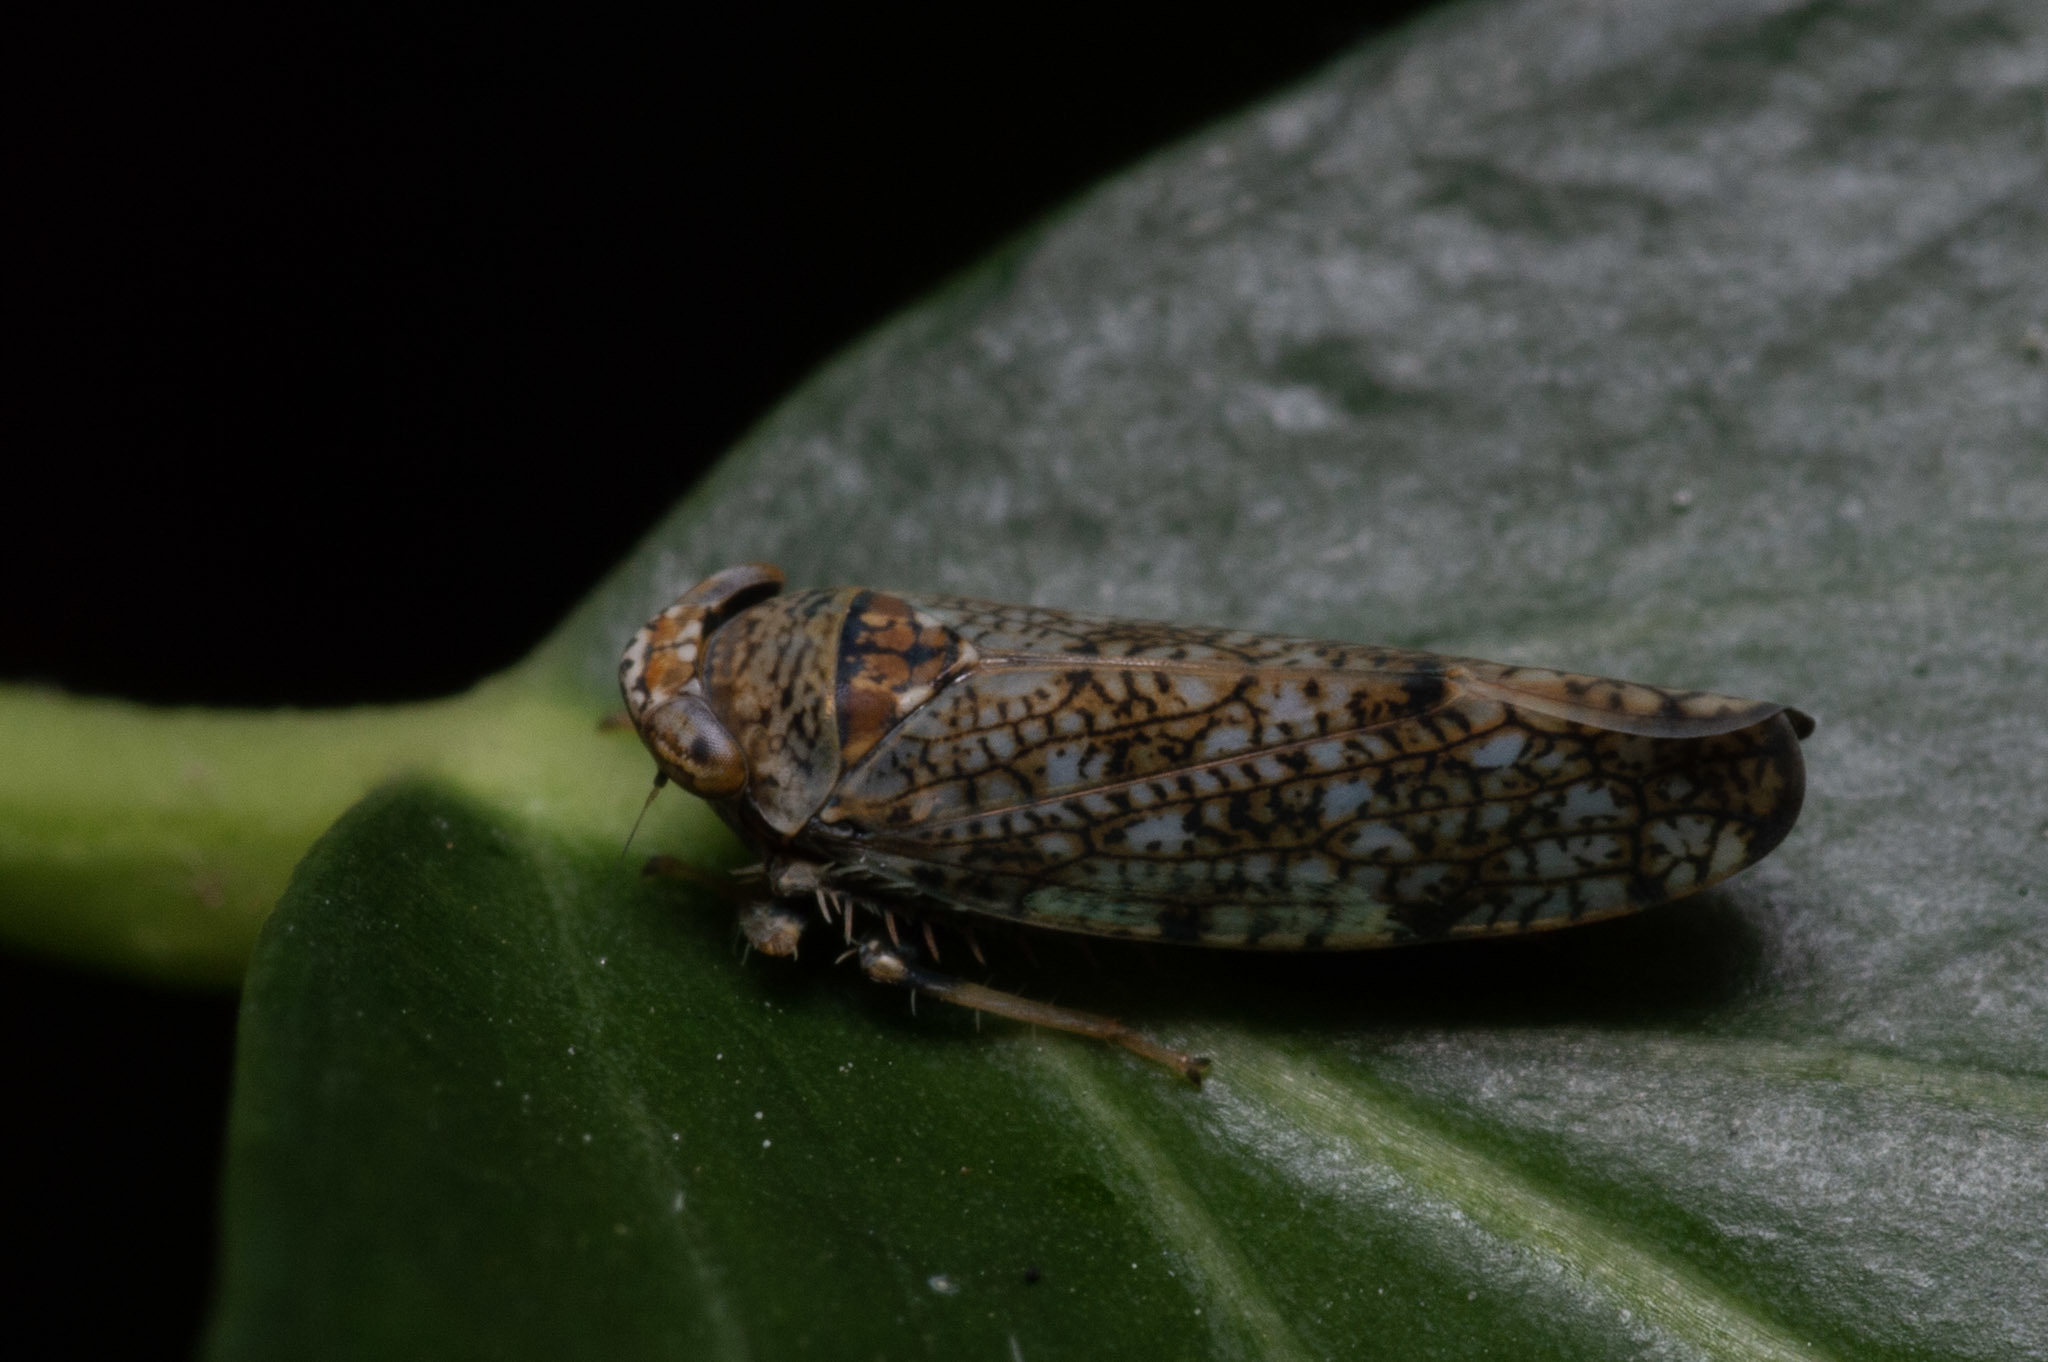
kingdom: Animalia
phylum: Arthropoda
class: Insecta
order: Hemiptera
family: Cicadellidae
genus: Orientus
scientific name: Orientus ishidae
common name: Japanese leafhopper
